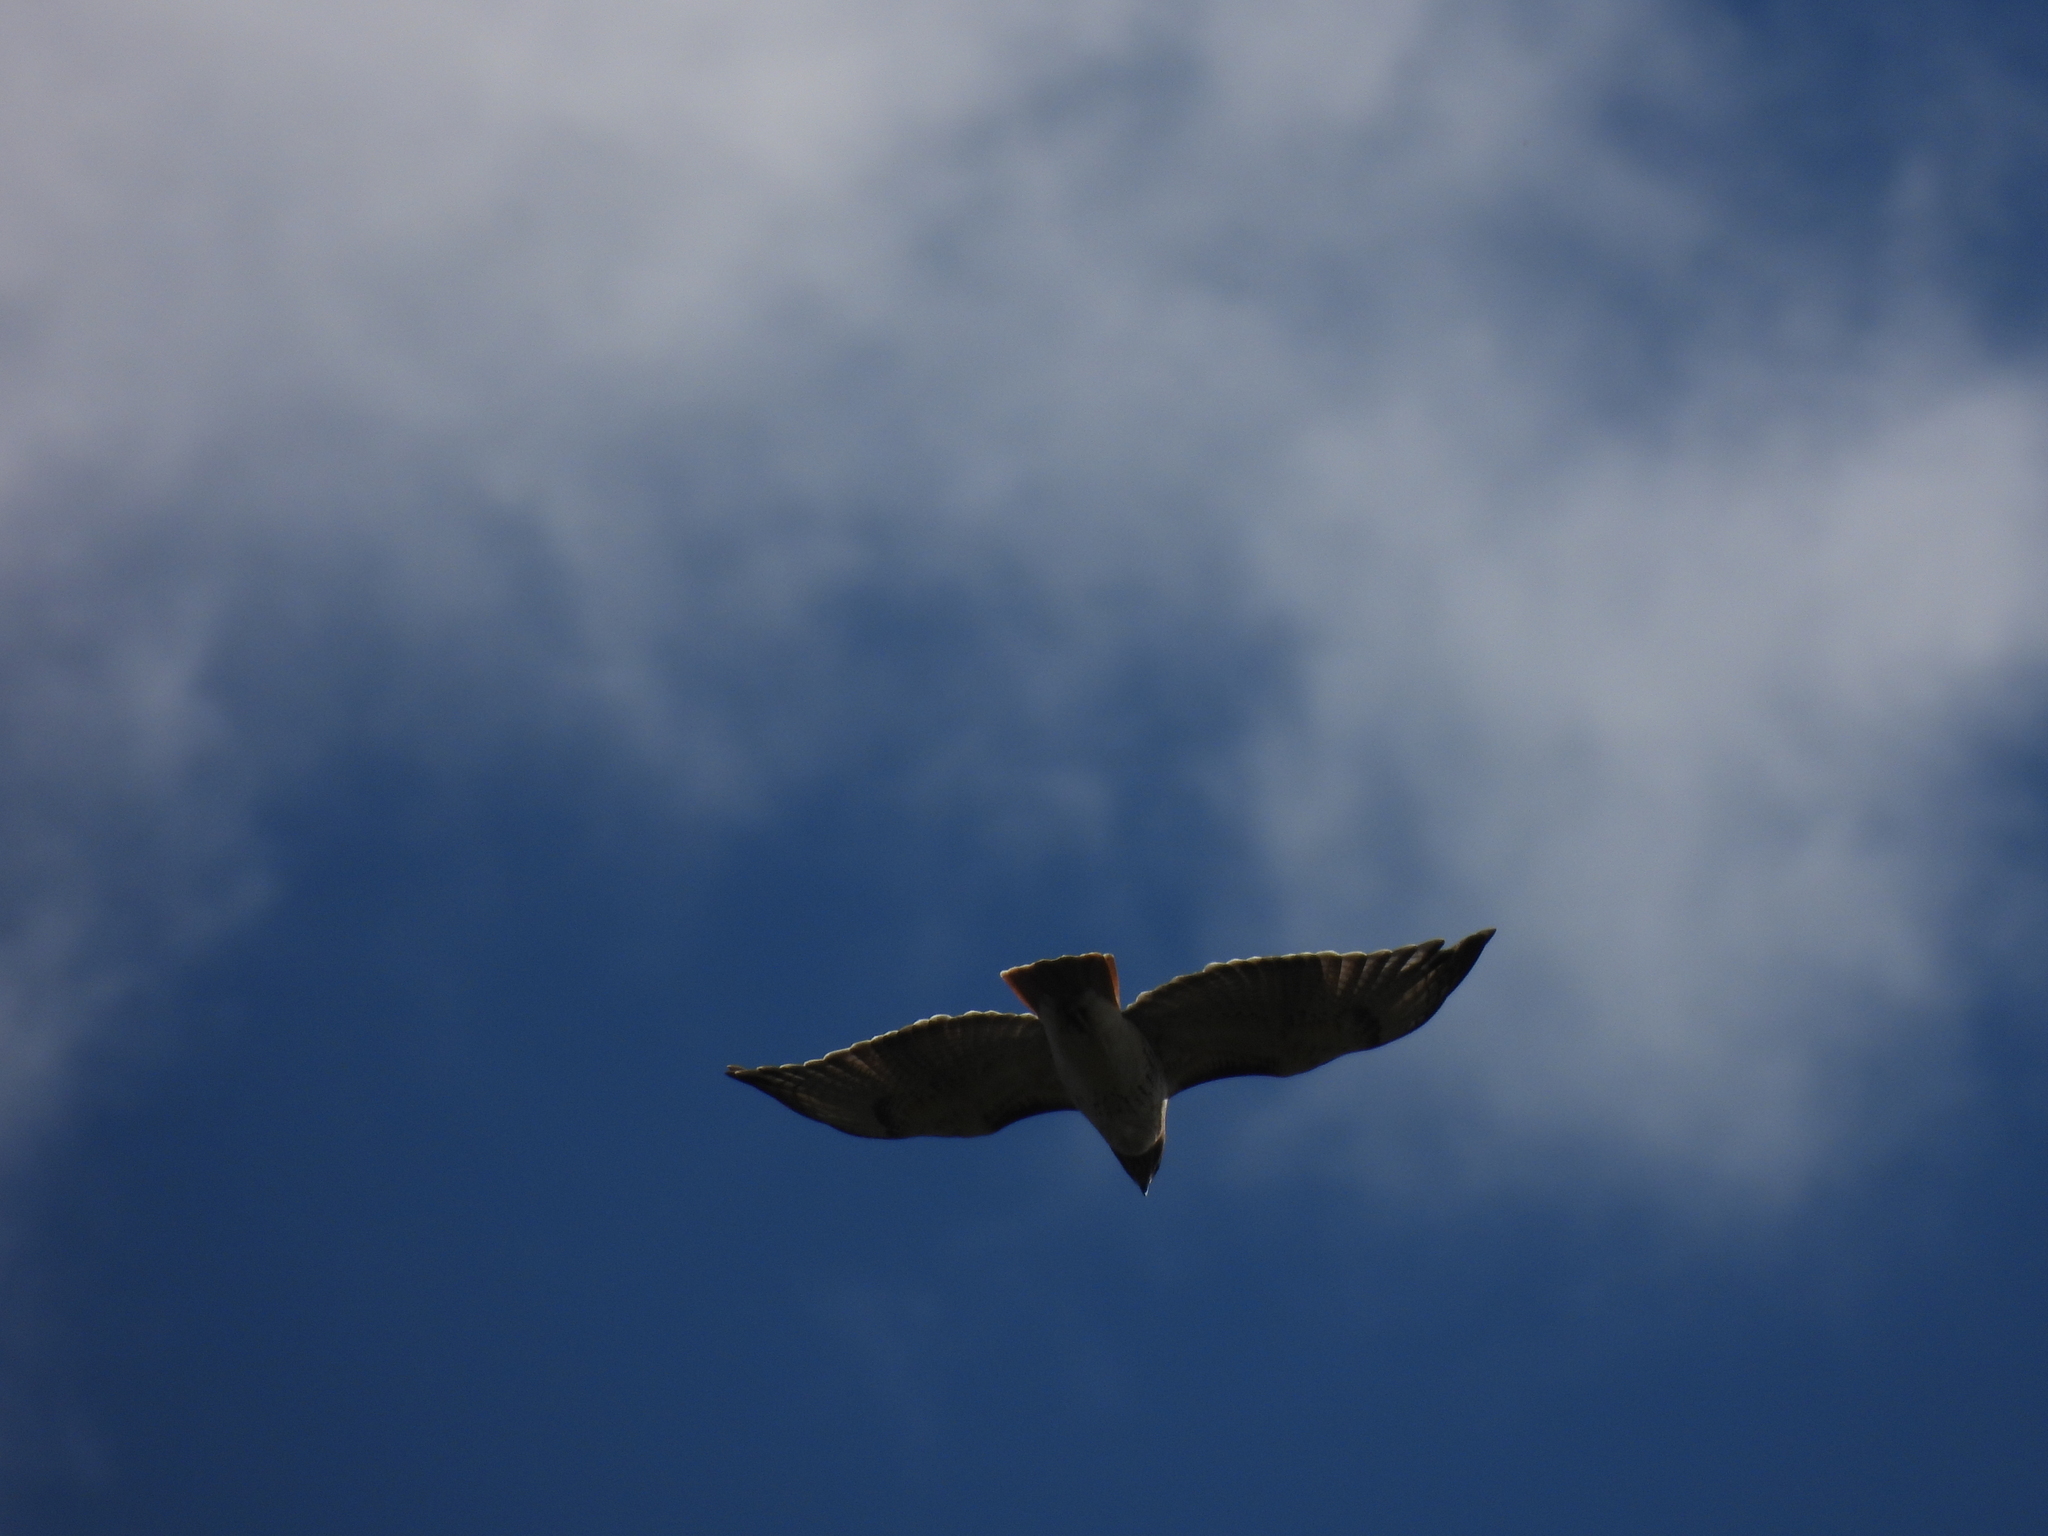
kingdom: Animalia
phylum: Chordata
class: Aves
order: Accipitriformes
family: Accipitridae
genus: Buteo
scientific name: Buteo jamaicensis
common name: Red-tailed hawk
